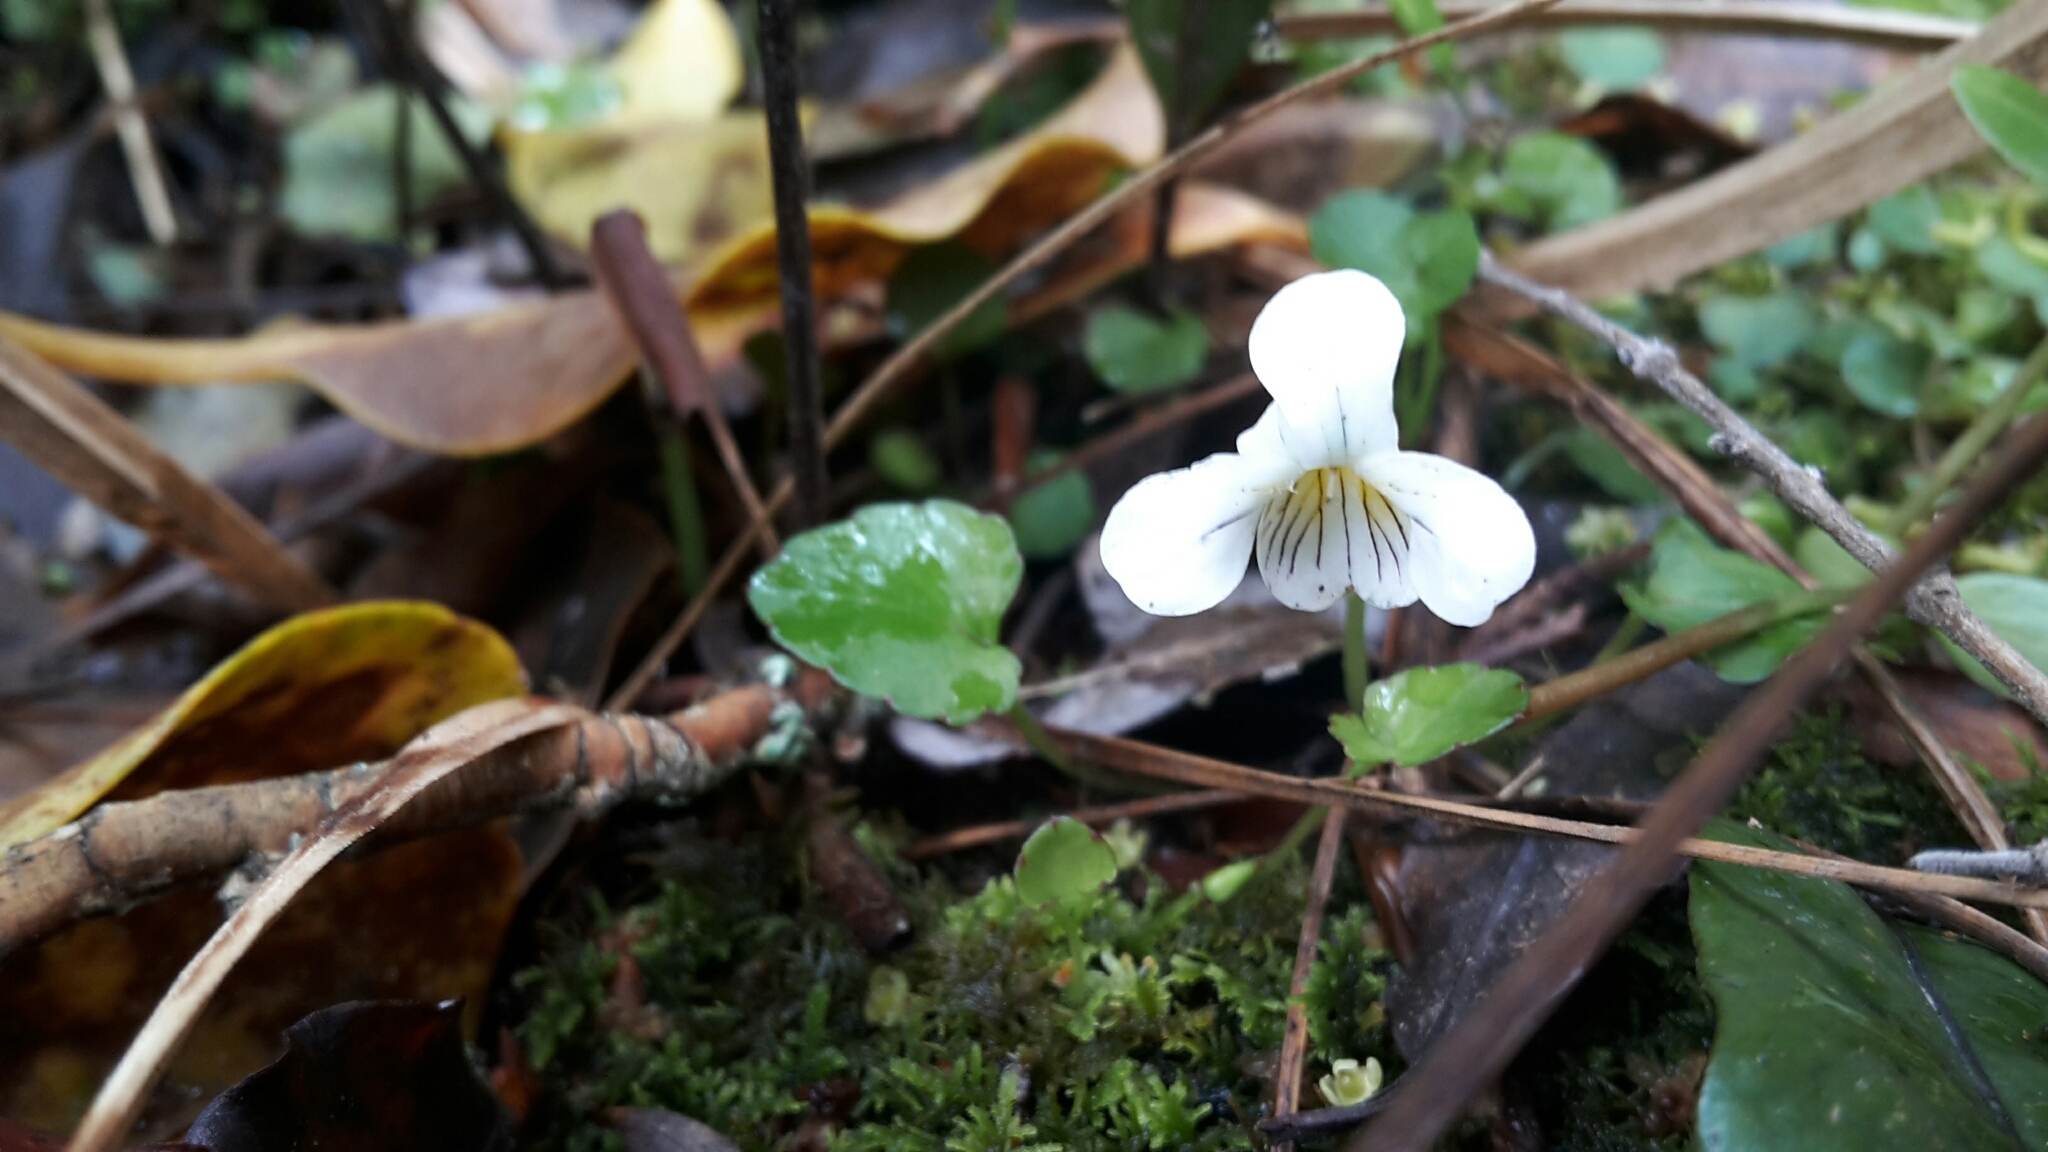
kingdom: Plantae
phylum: Tracheophyta
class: Magnoliopsida
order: Malpighiales
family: Violaceae
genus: Viola
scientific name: Viola filicaulis
